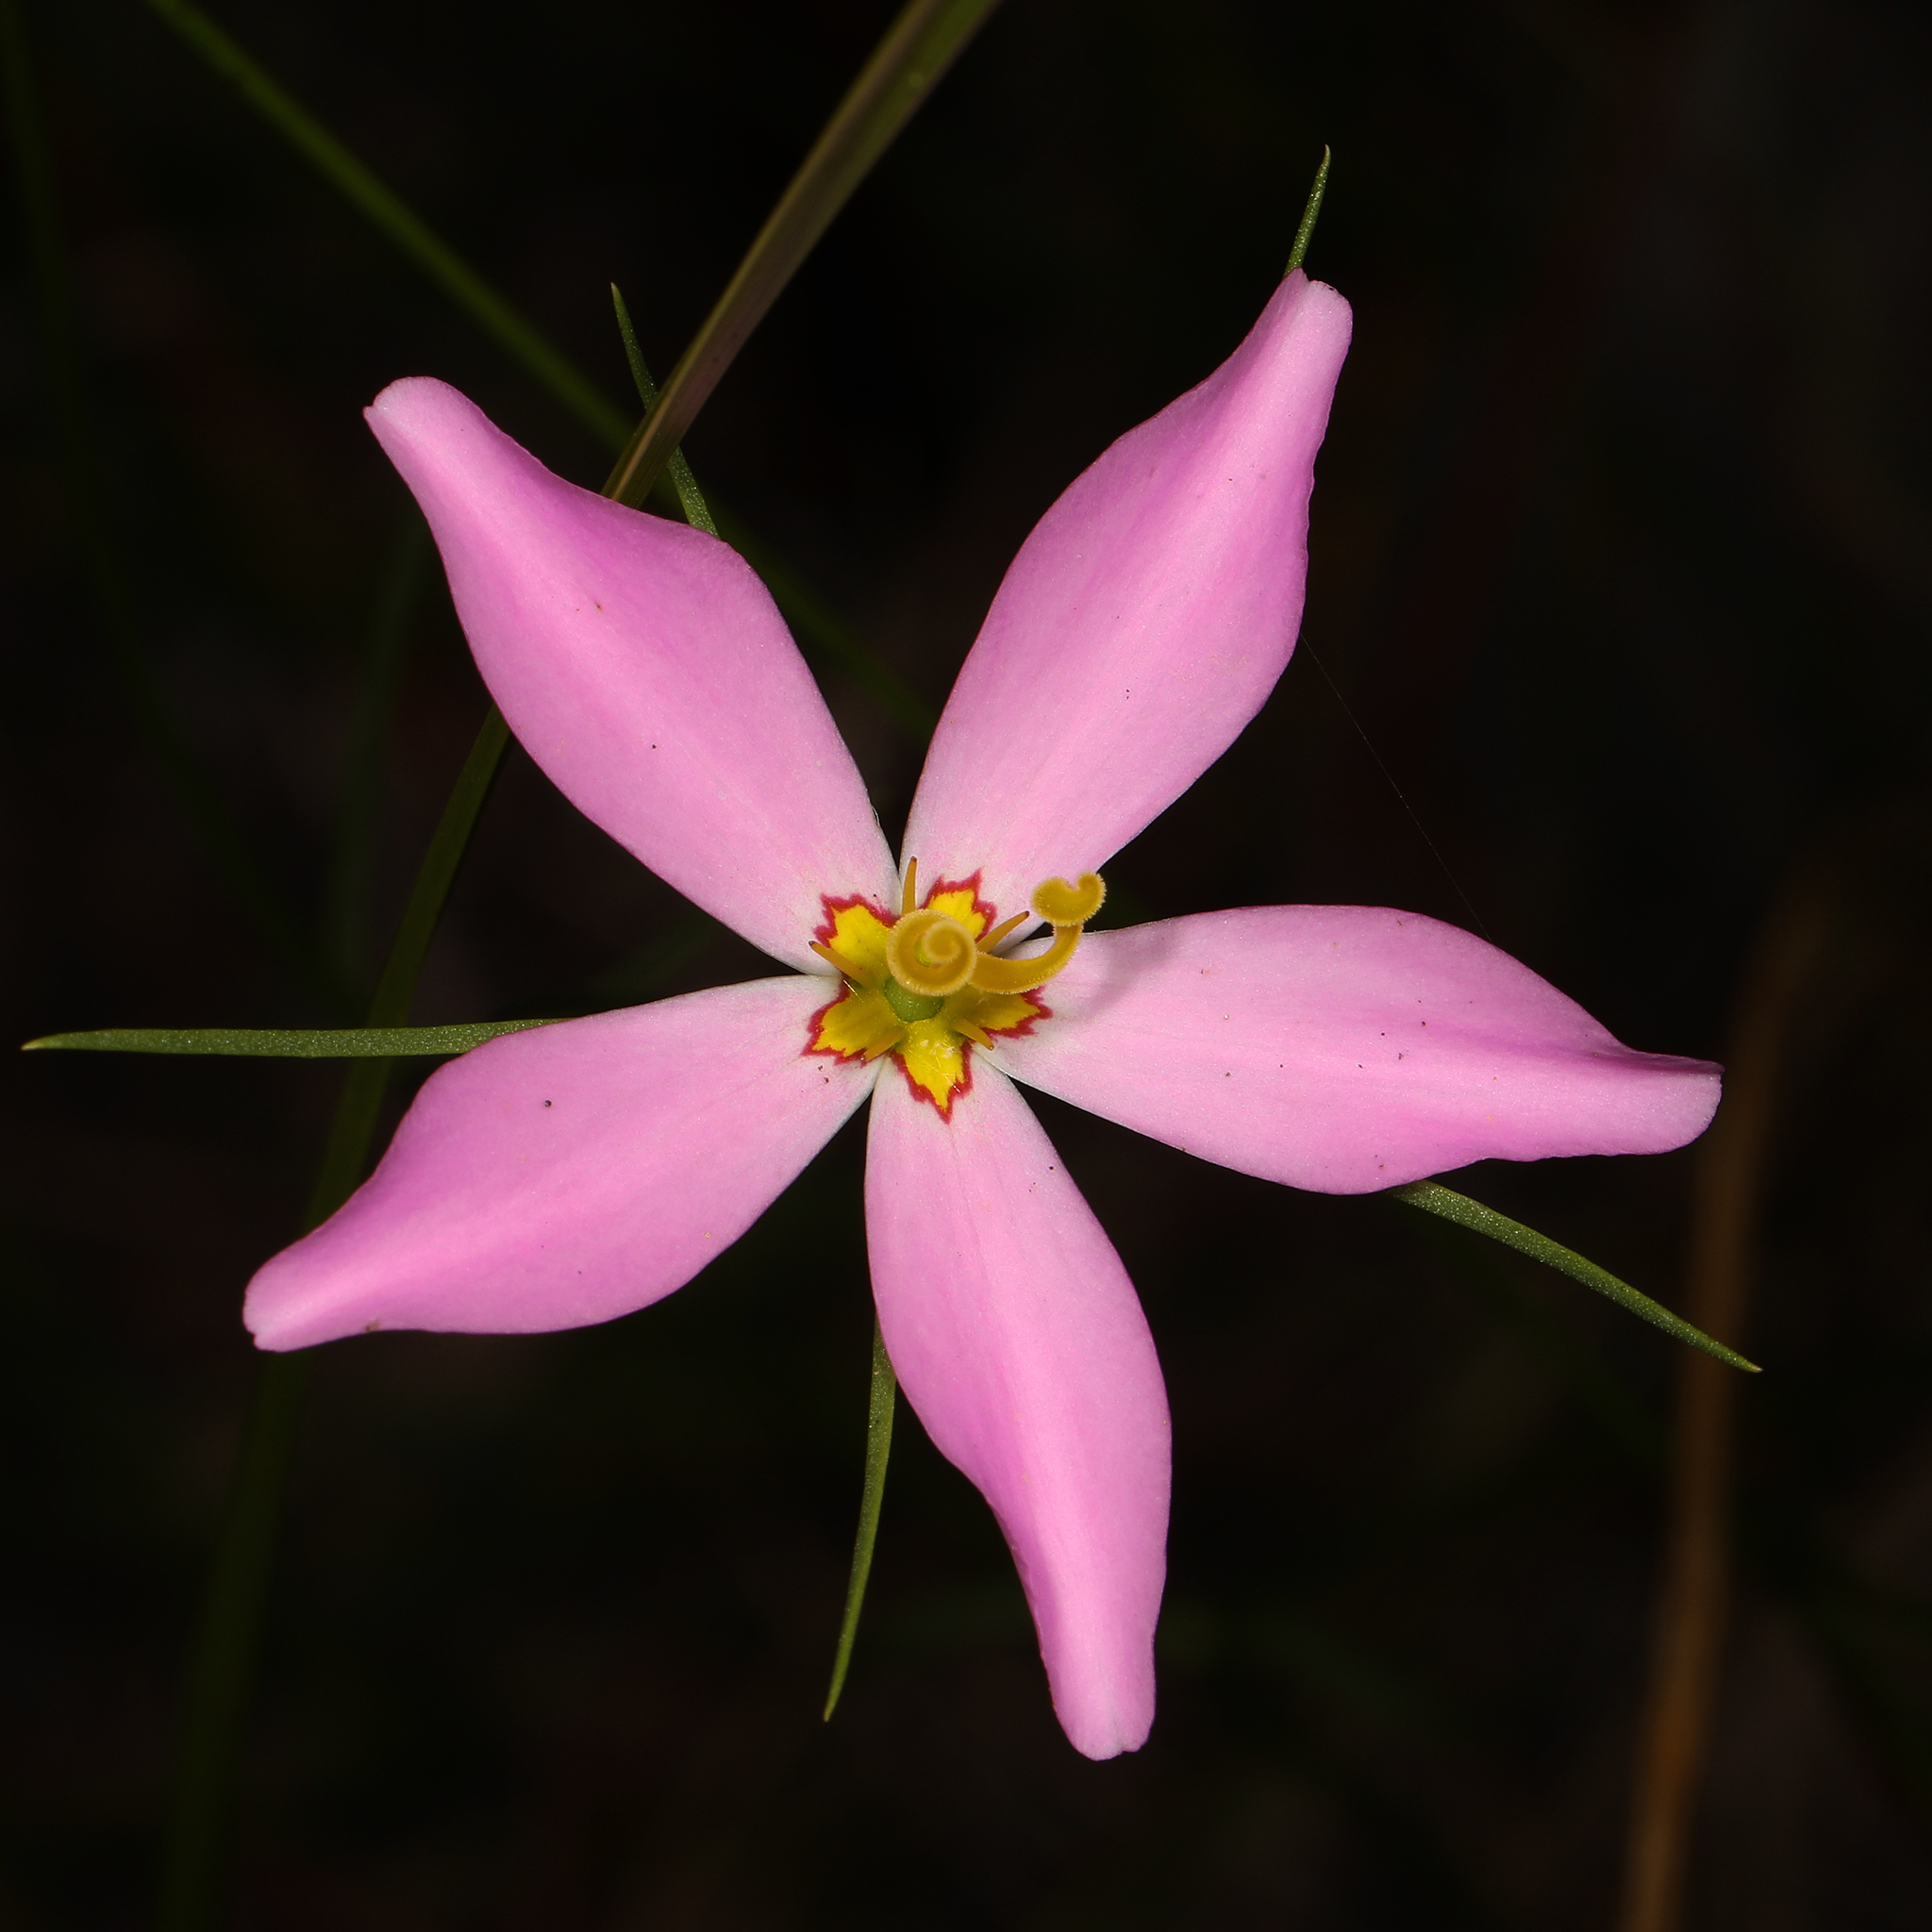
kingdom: Plantae
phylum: Tracheophyta
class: Magnoliopsida
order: Gentianales
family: Gentianaceae
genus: Sabatia
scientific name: Sabatia stellaris
